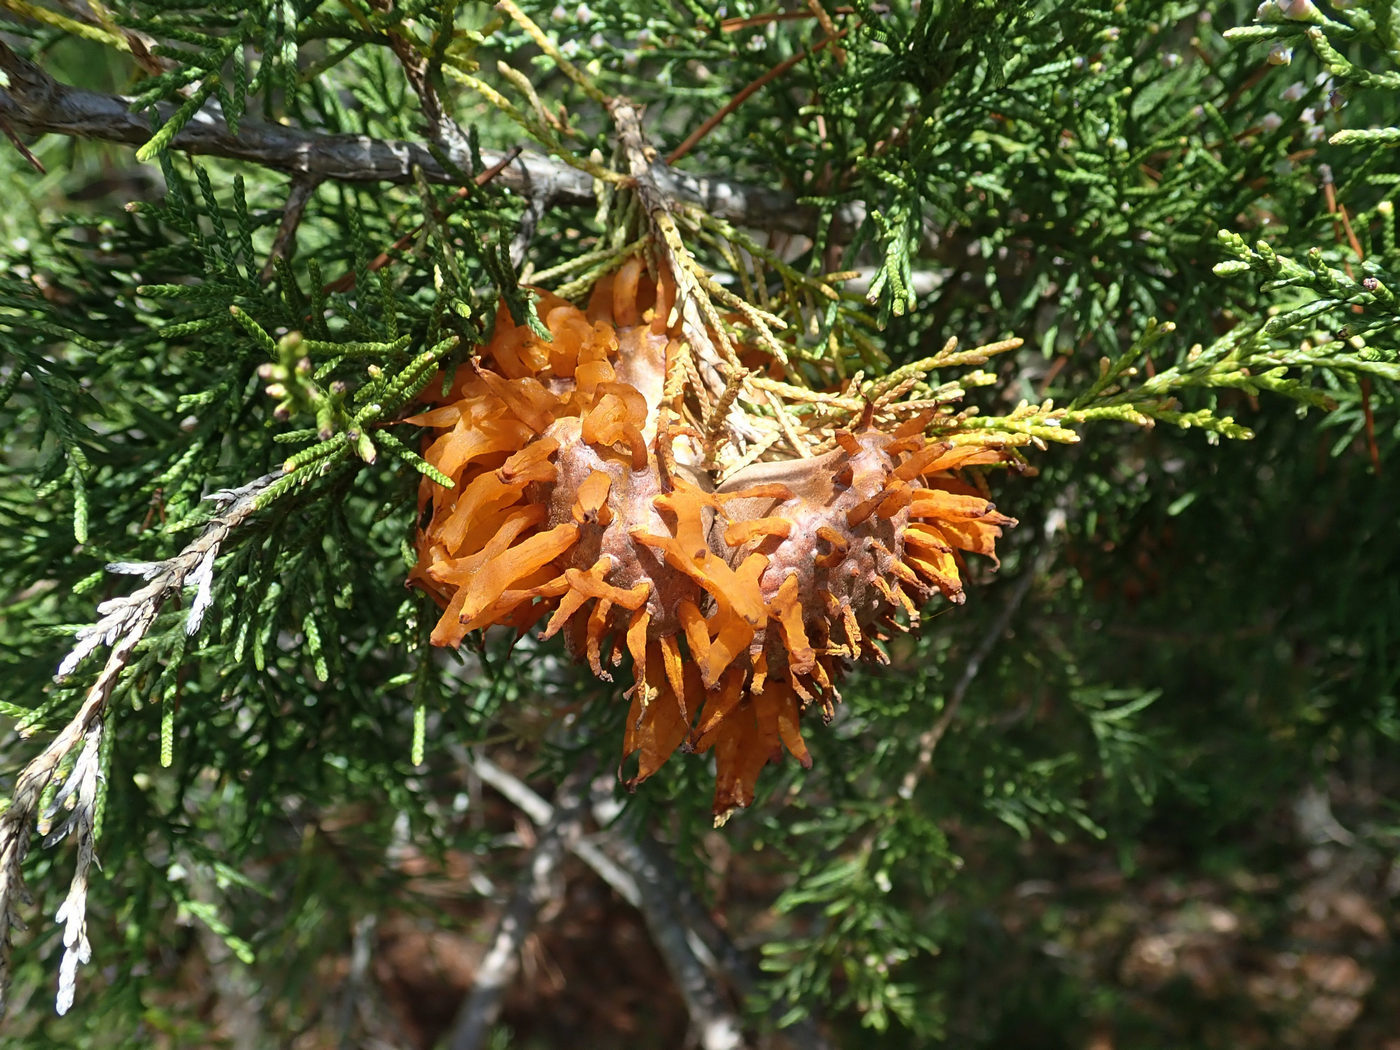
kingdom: Fungi
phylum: Basidiomycota
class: Pucciniomycetes
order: Pucciniales
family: Gymnosporangiaceae
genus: Gymnosporangium
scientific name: Gymnosporangium juniperi-virginianae
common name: Juniper-apple rust
